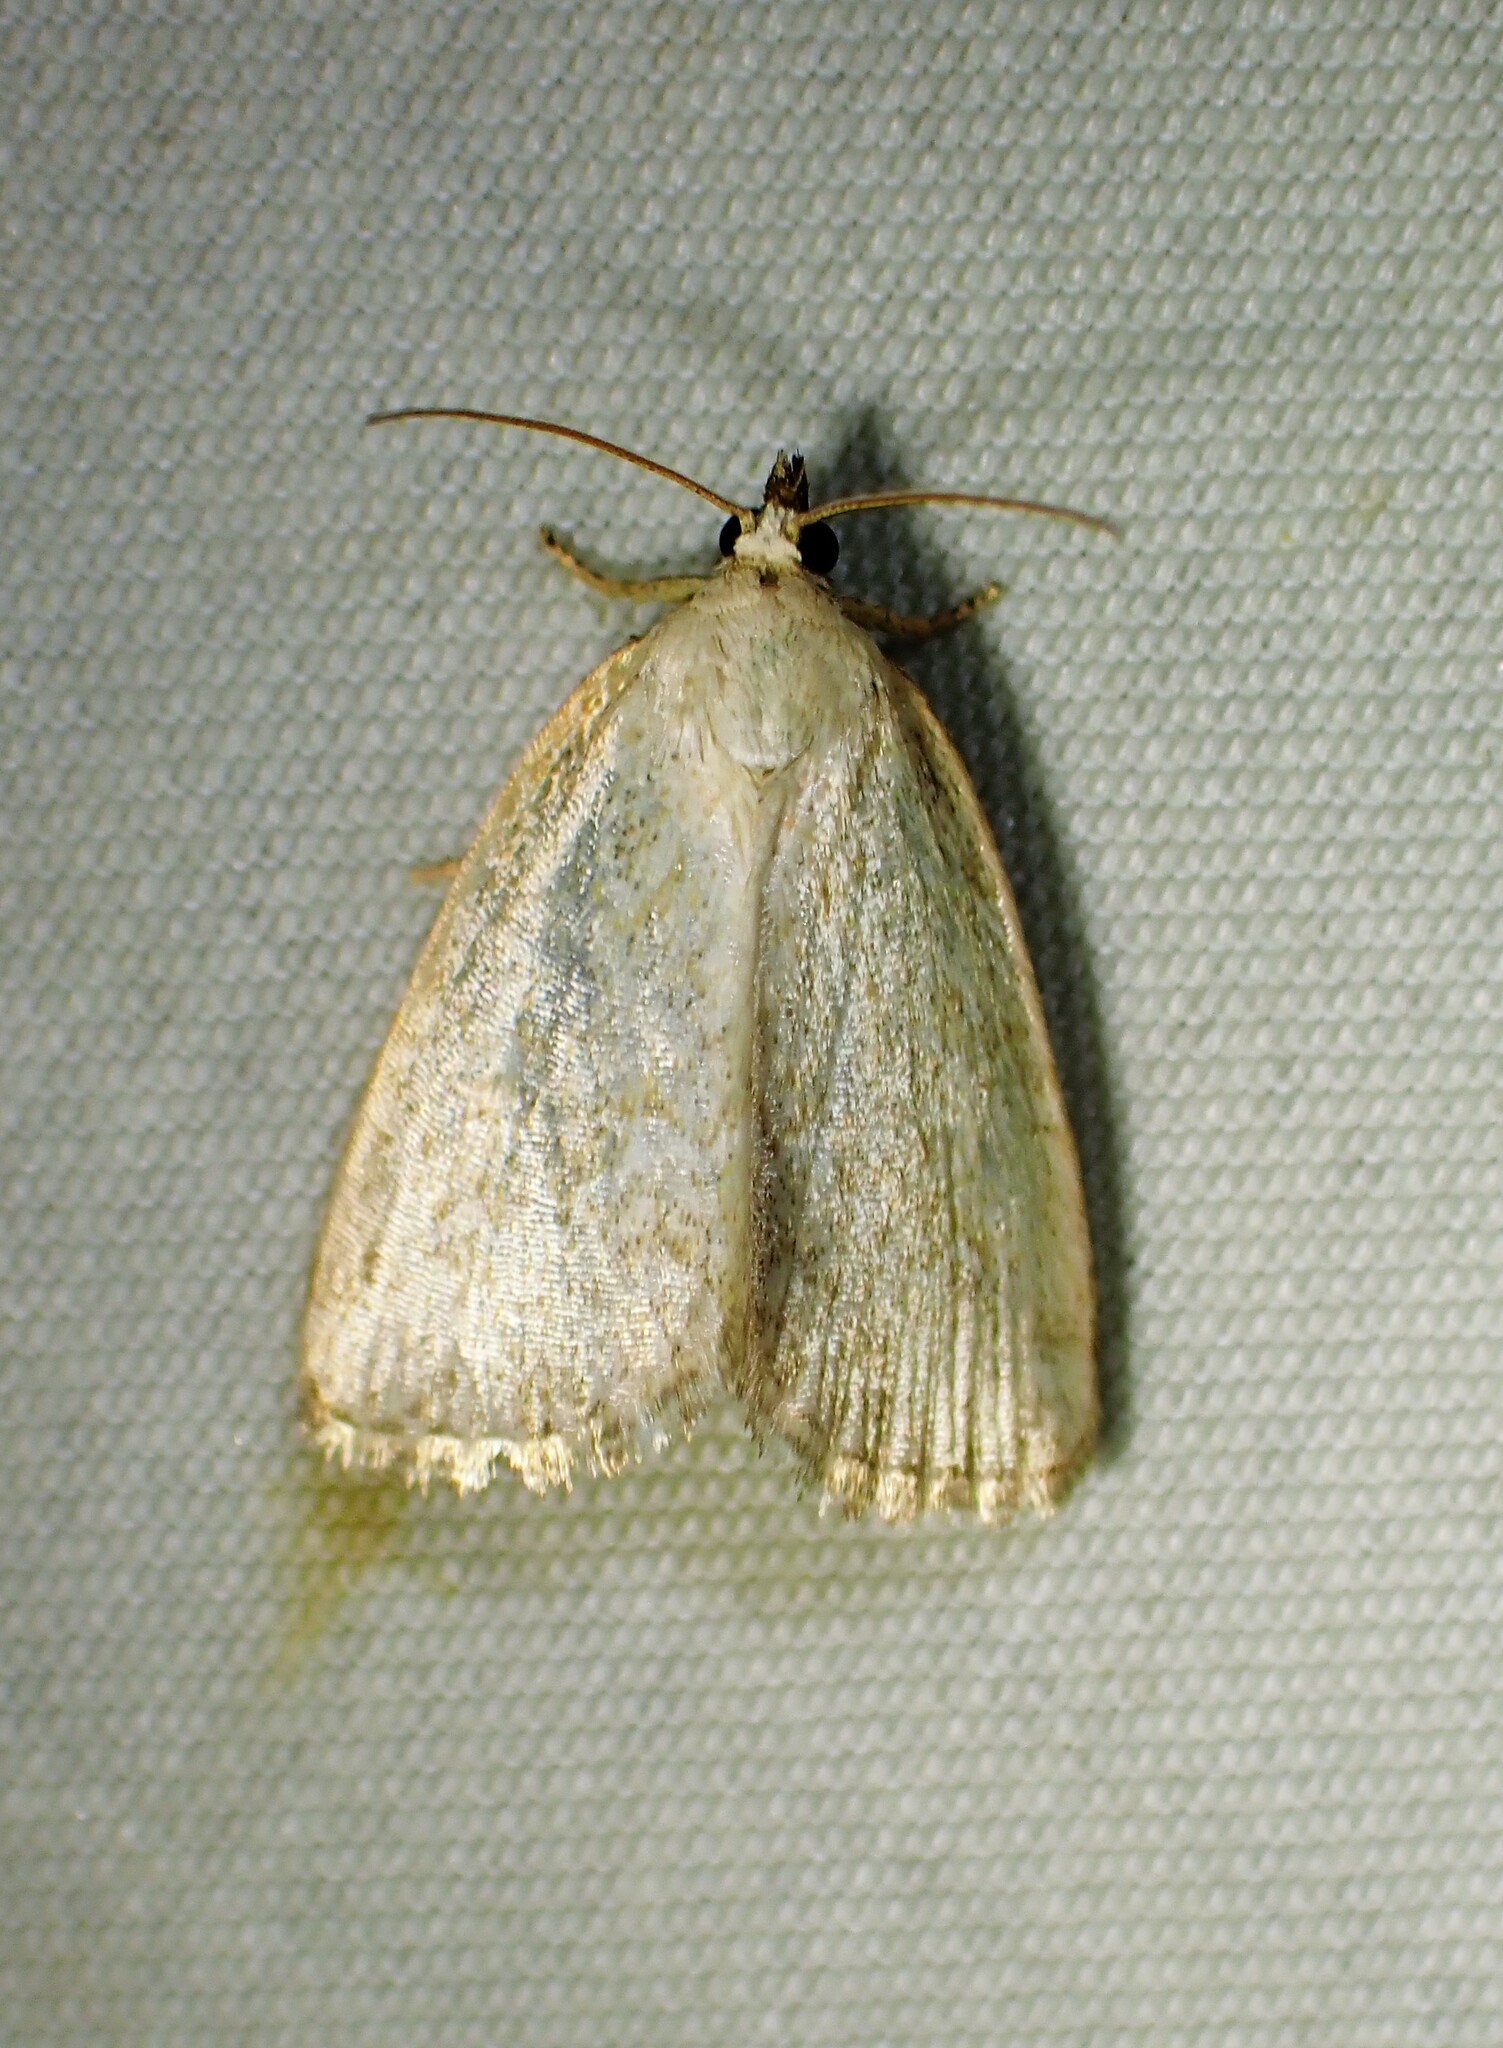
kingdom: Animalia
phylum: Arthropoda
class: Insecta
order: Lepidoptera
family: Noctuidae
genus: Protodeltote
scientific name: Protodeltote albidula
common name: Pale glyph
